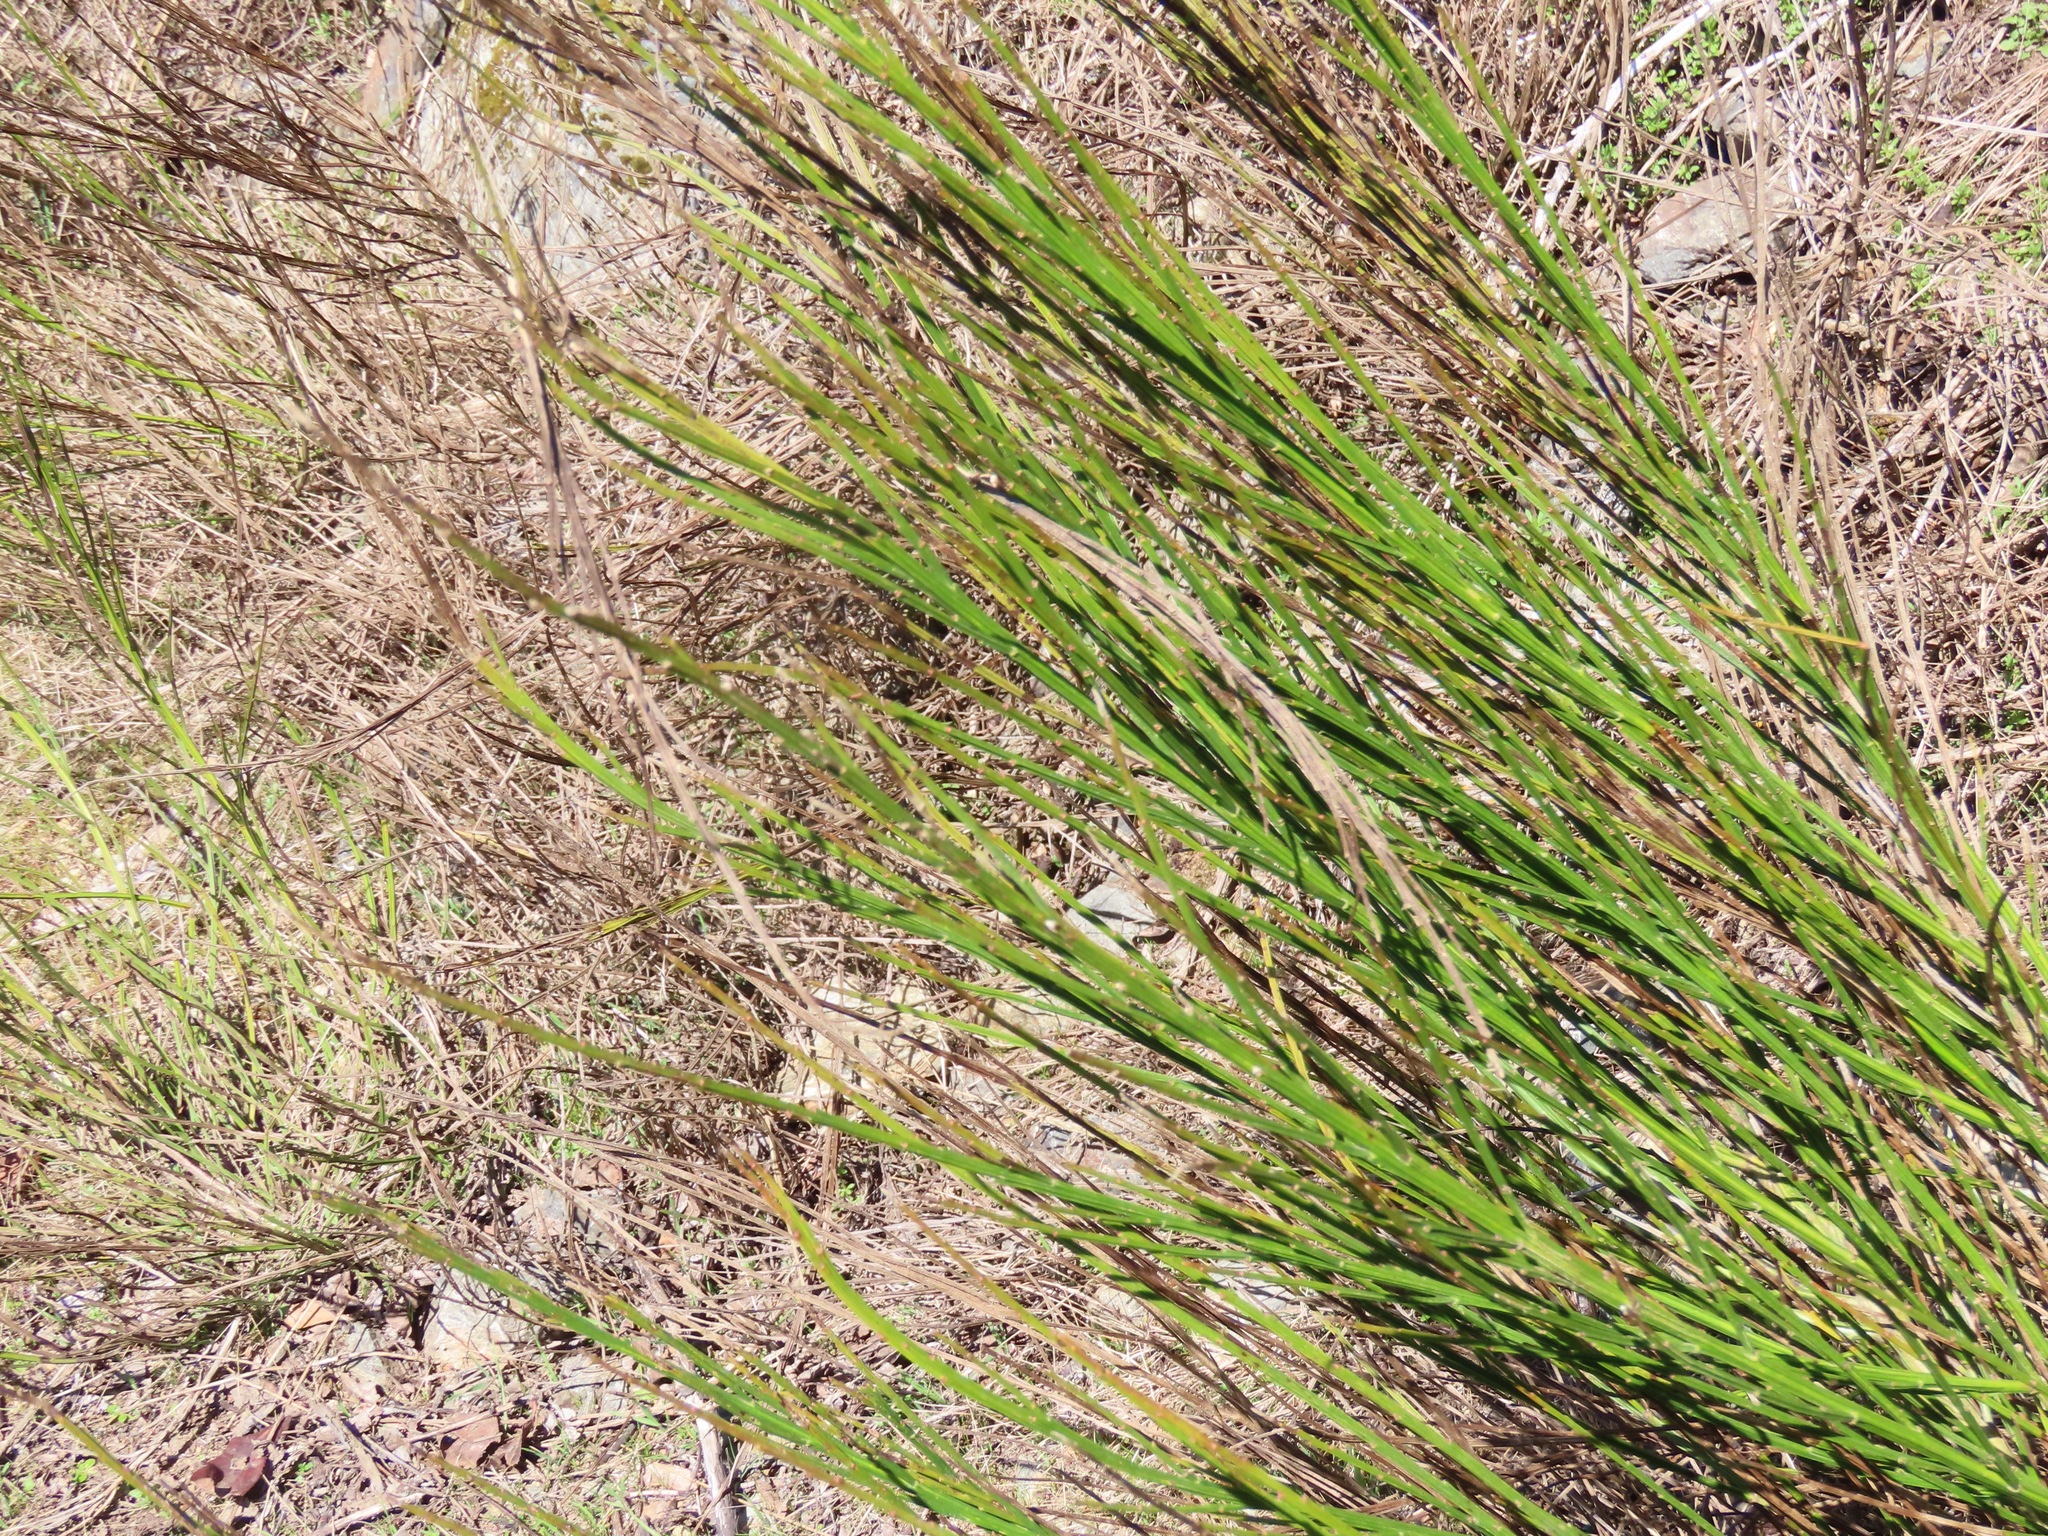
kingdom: Plantae
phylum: Tracheophyta
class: Magnoliopsida
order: Fabales
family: Fabaceae
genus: Cytisus
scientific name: Cytisus scoparius
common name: Scotch broom
